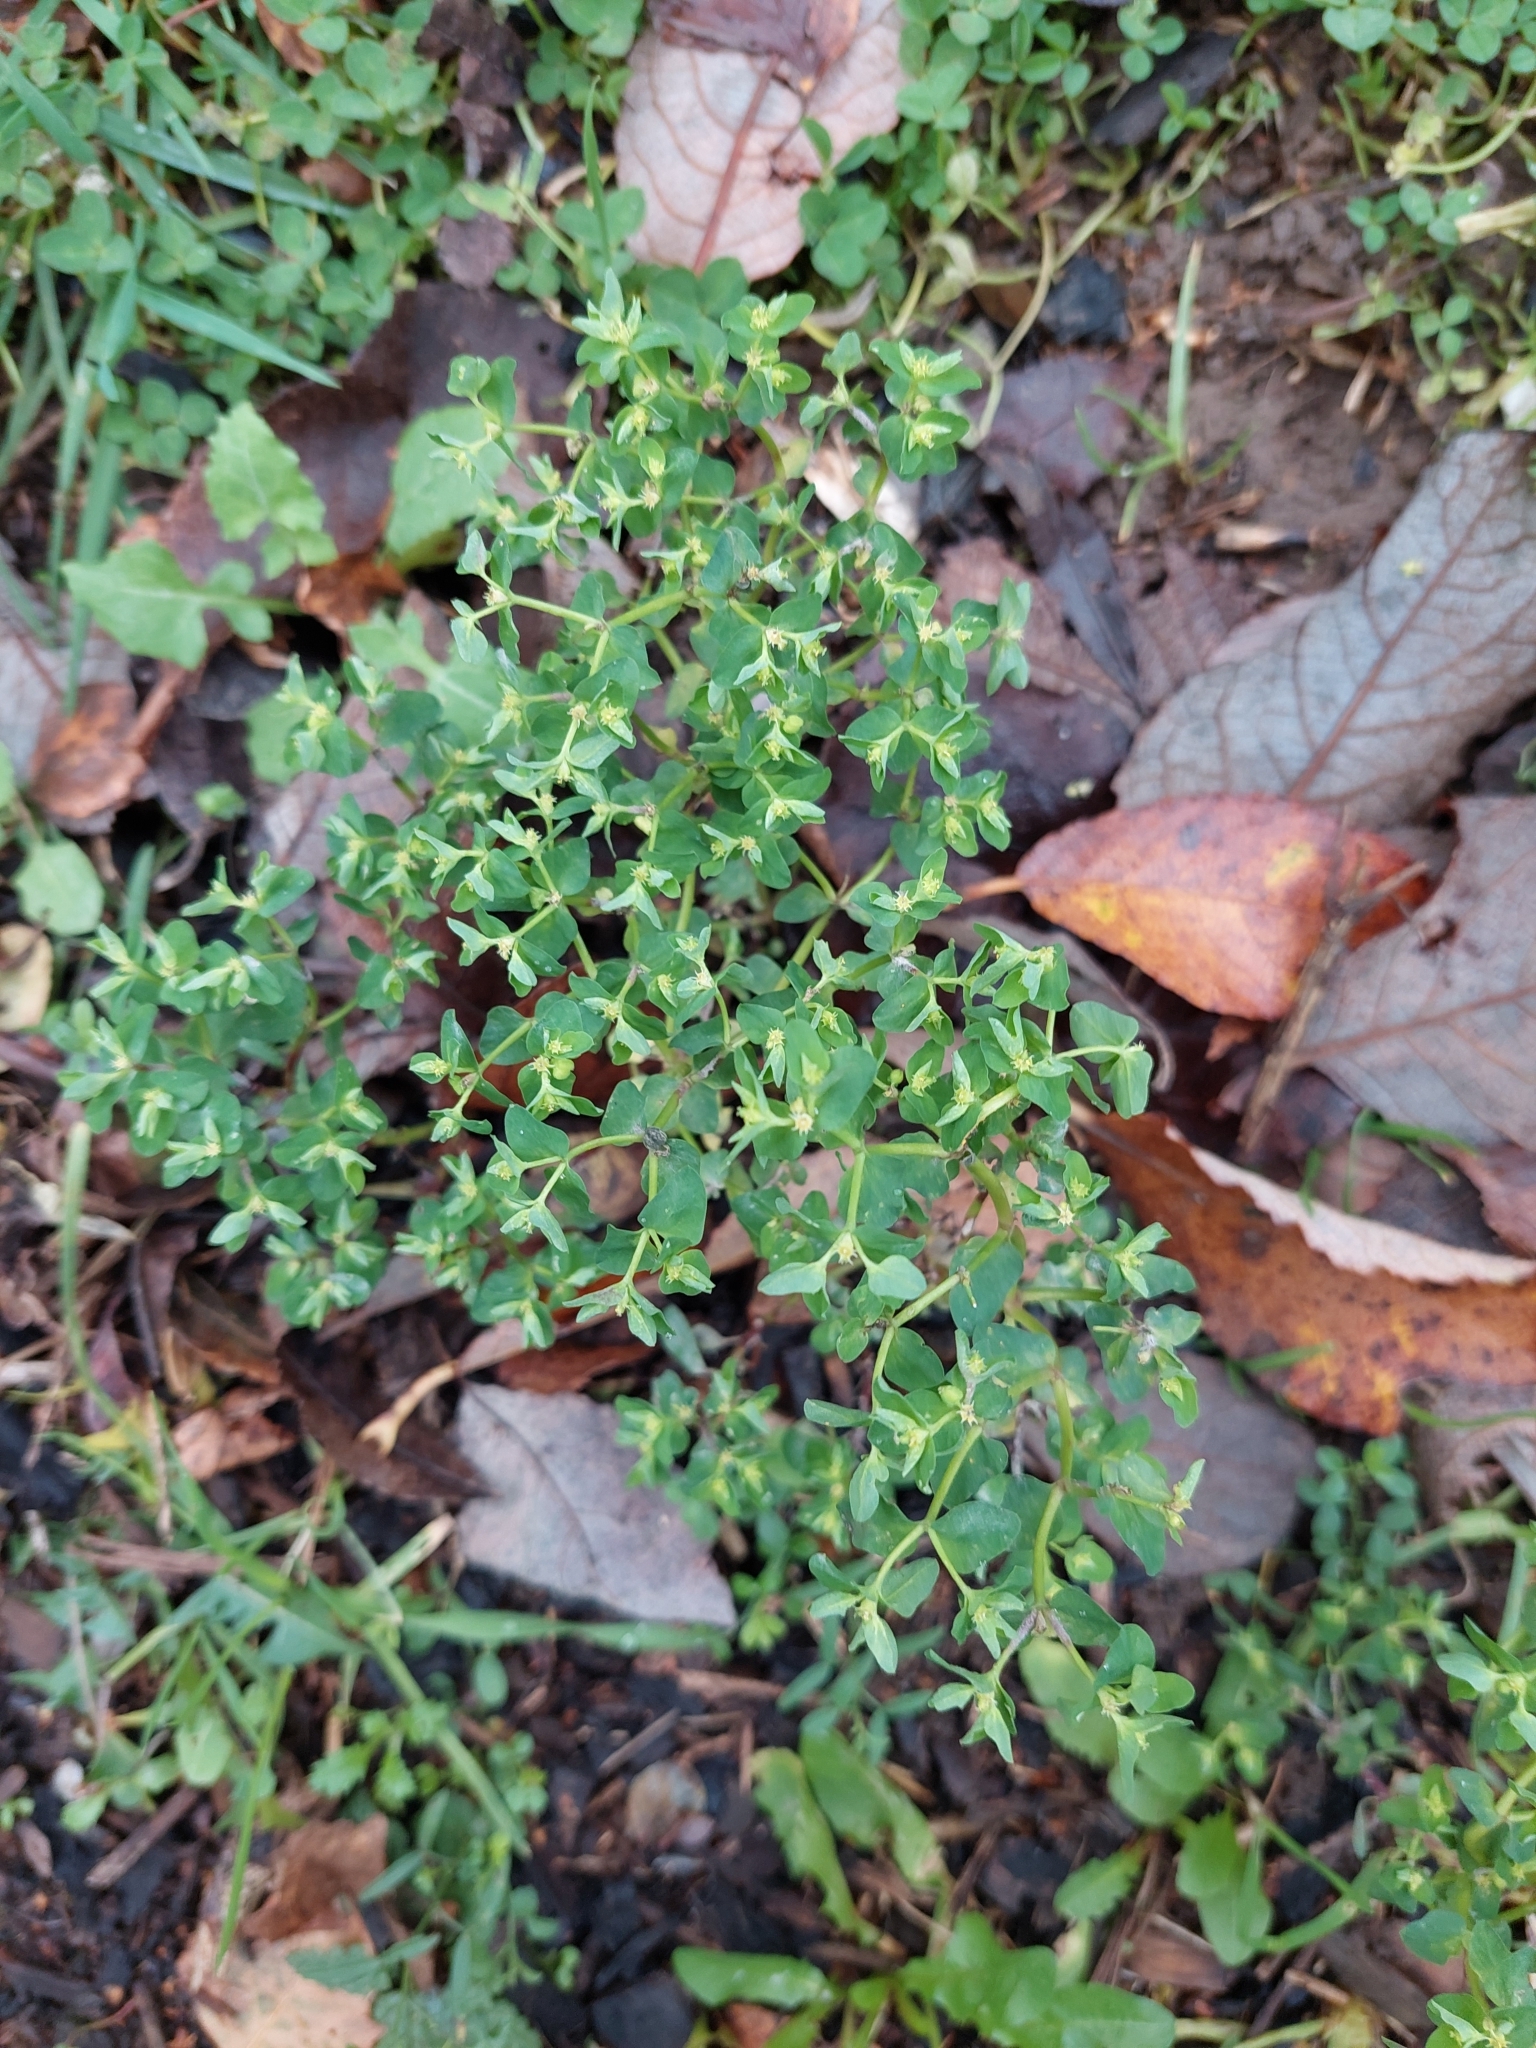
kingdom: Plantae
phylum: Tracheophyta
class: Magnoliopsida
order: Malpighiales
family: Euphorbiaceae
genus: Euphorbia
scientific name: Euphorbia peplus
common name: Petty spurge
